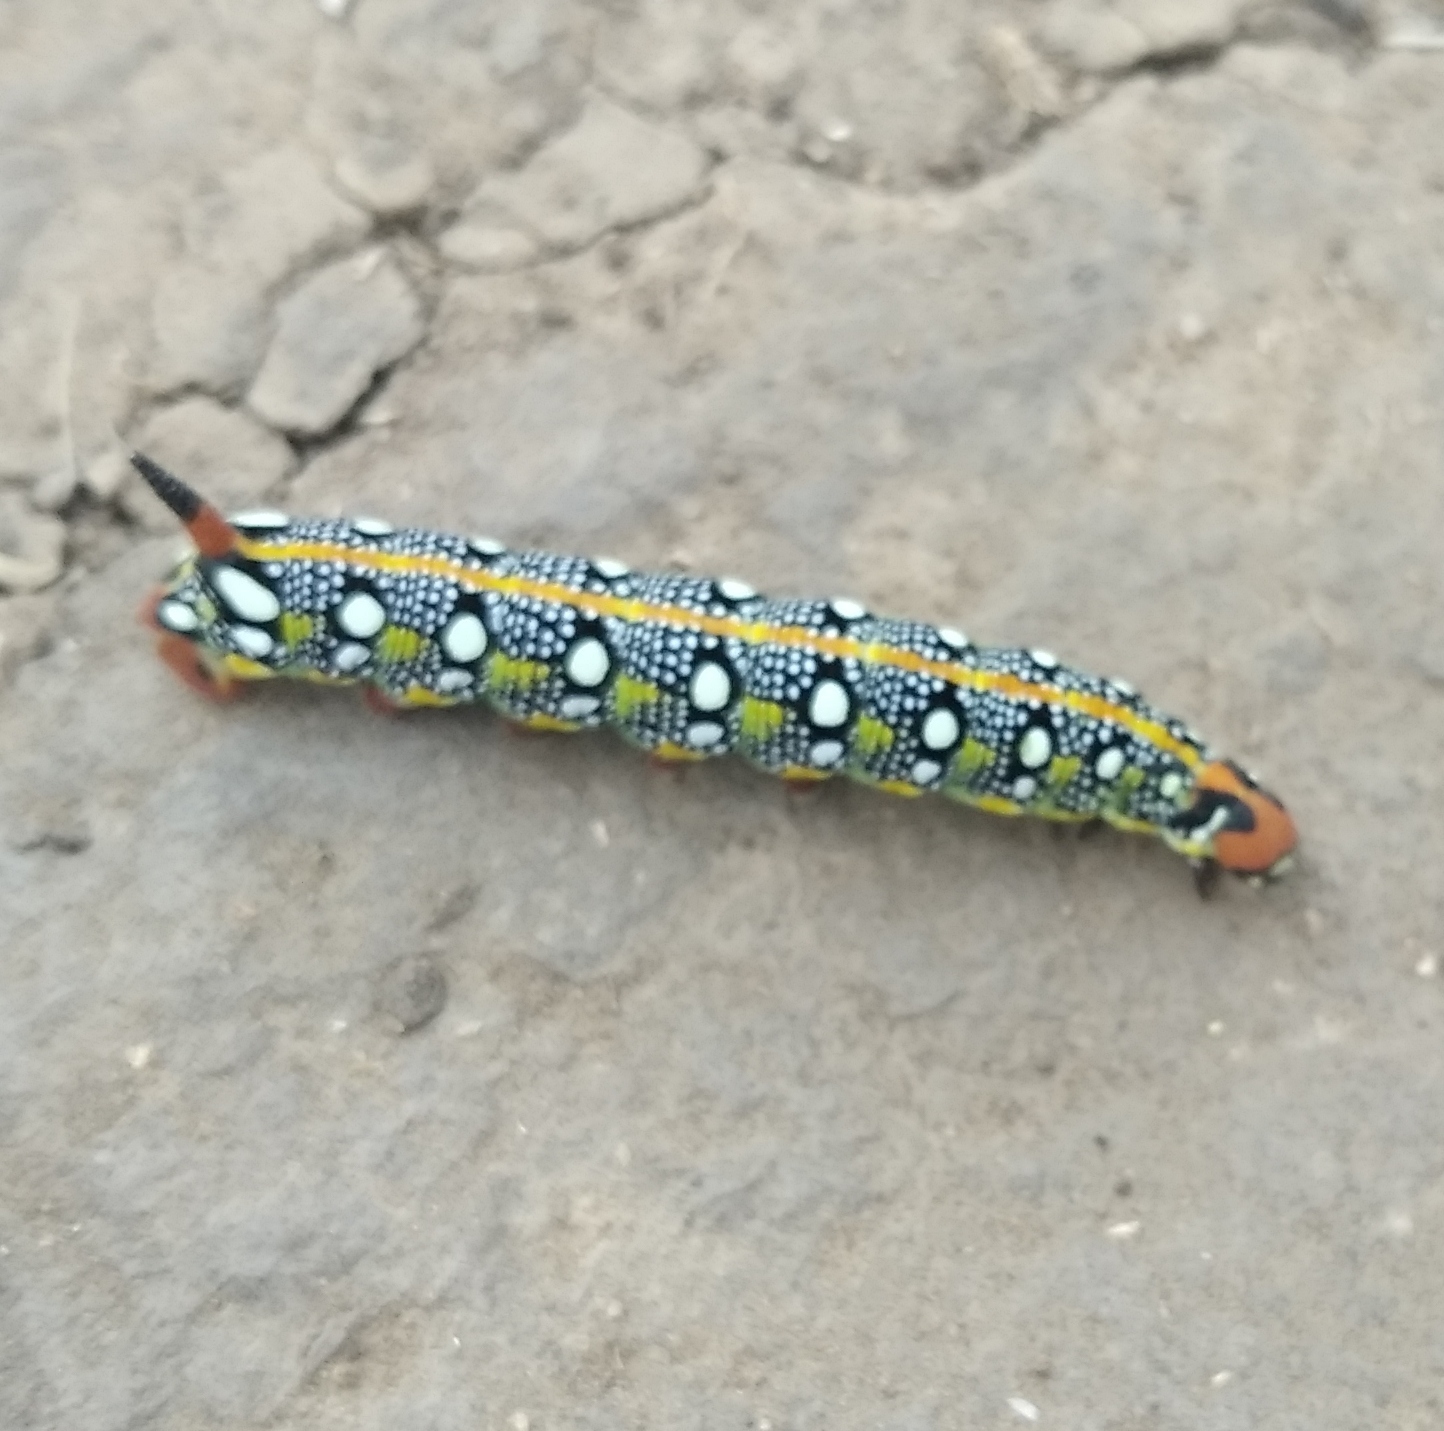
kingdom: Animalia
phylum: Arthropoda
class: Insecta
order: Lepidoptera
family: Sphingidae
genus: Hyles
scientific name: Hyles euphorbiae
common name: Spurge hawk-moth
